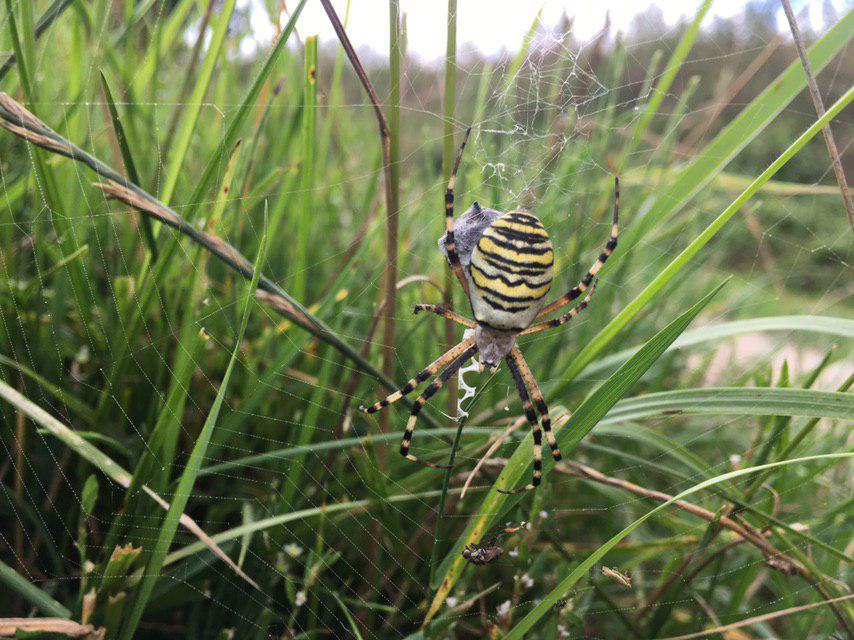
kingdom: Animalia
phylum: Arthropoda
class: Arachnida
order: Araneae
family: Araneidae
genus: Argiope
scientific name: Argiope bruennichi
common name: Wasp spider
